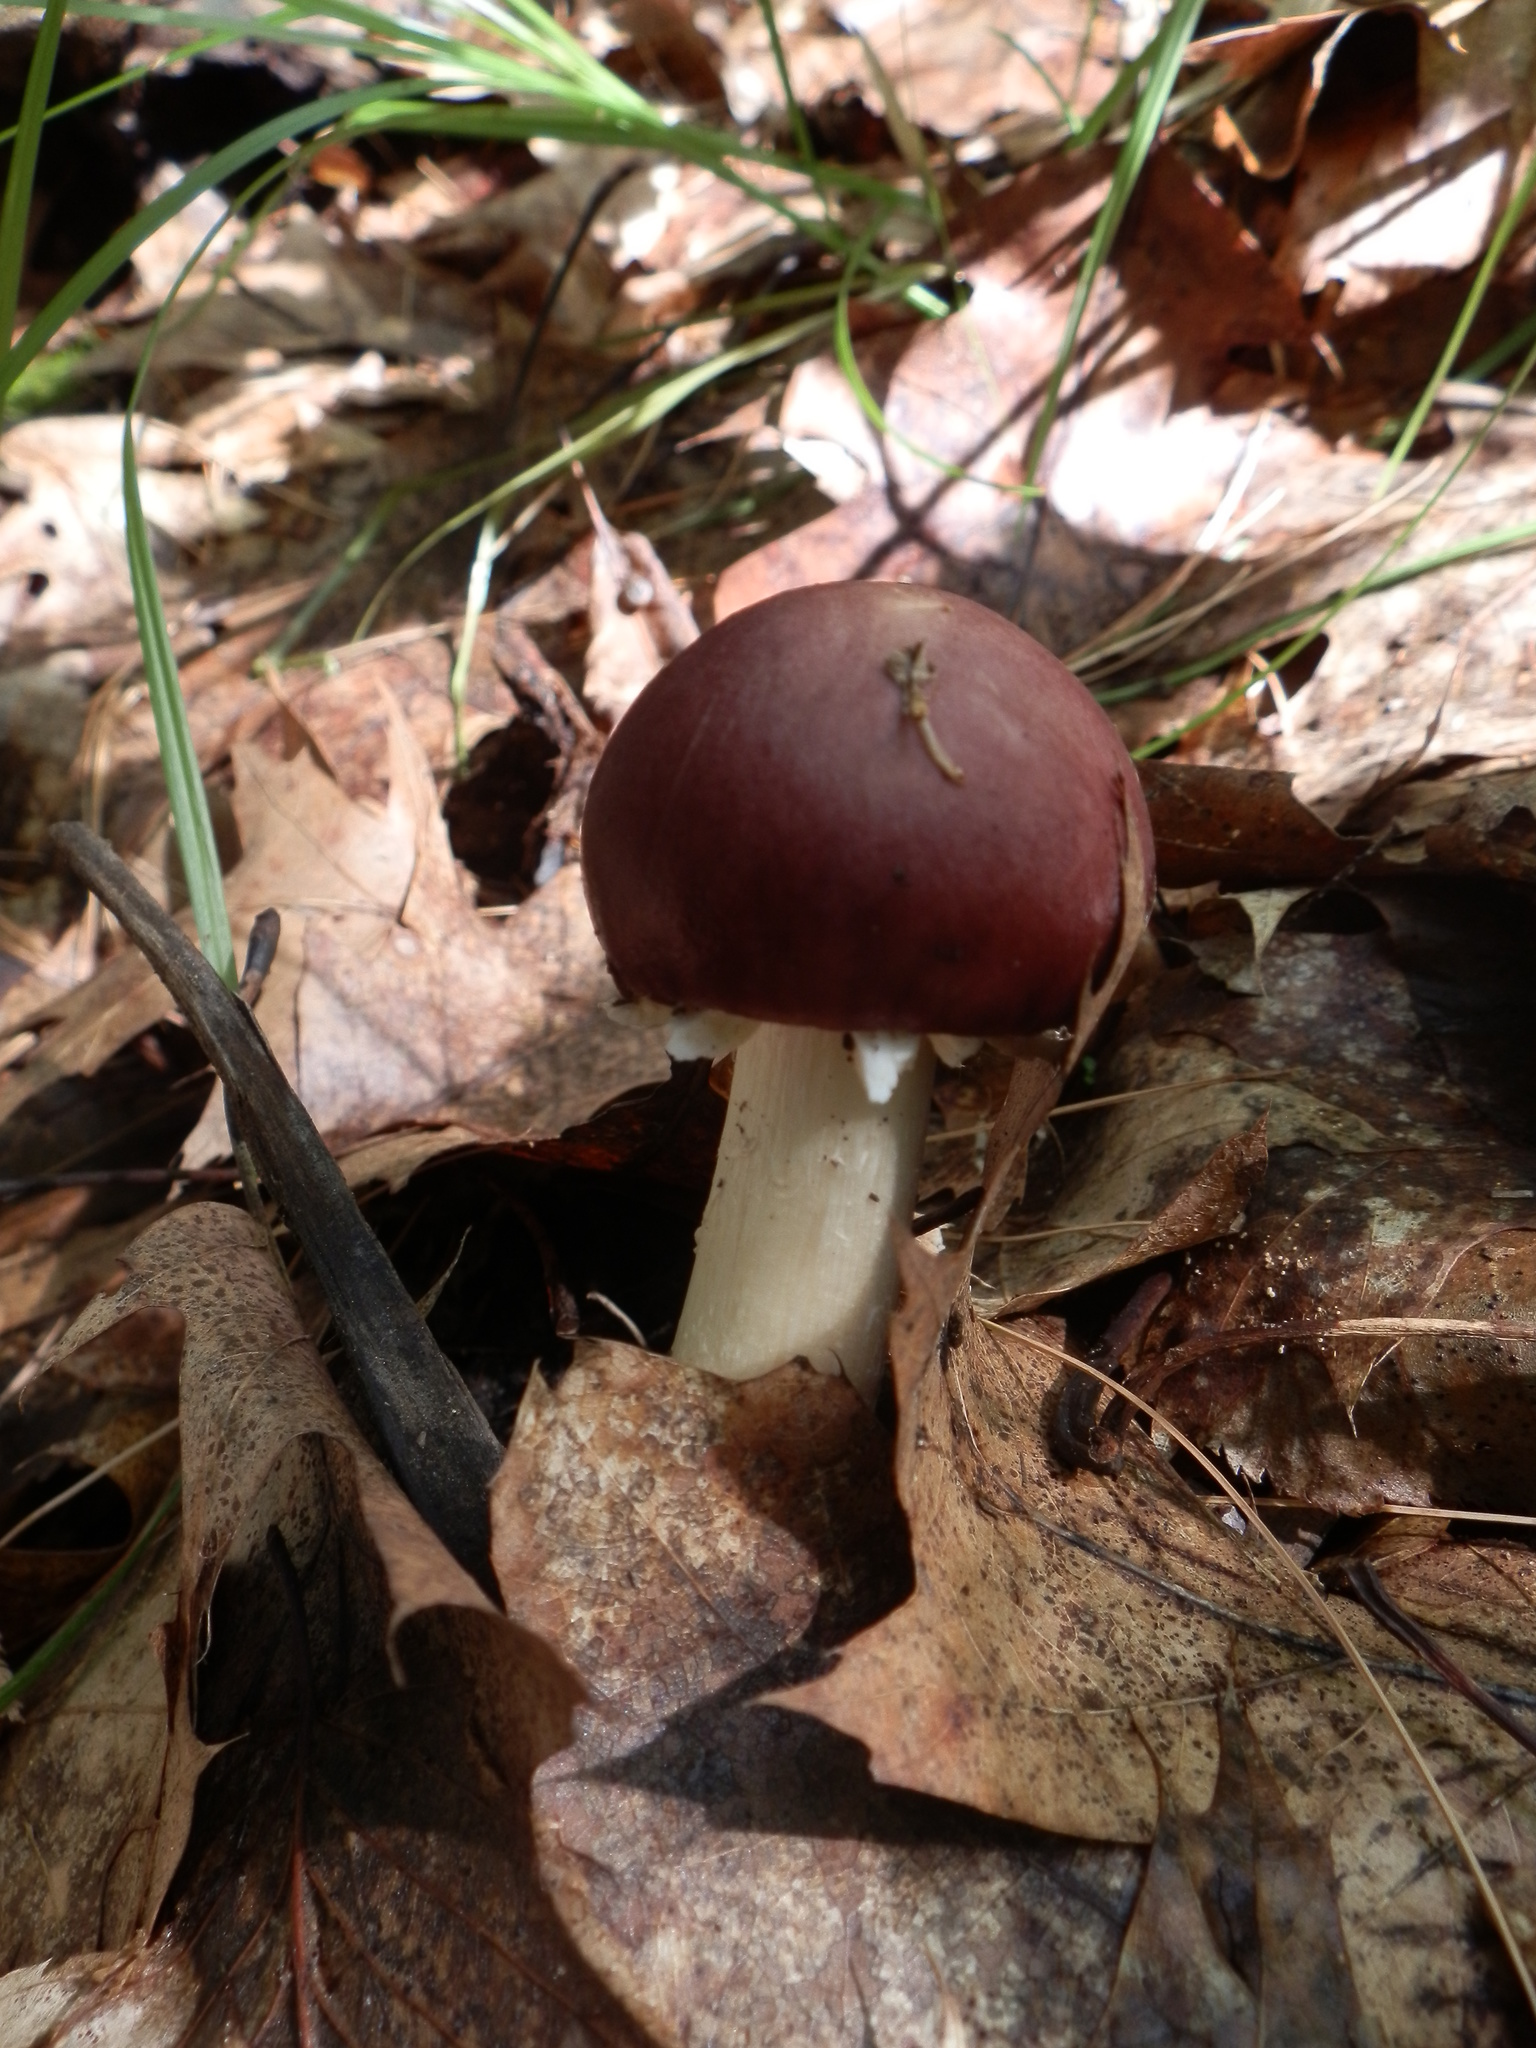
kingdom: Fungi
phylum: Basidiomycota
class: Agaricomycetes
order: Agaricales
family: Strophariaceae
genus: Stropharia
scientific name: Stropharia rugosoannulata
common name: Wine roundhead
